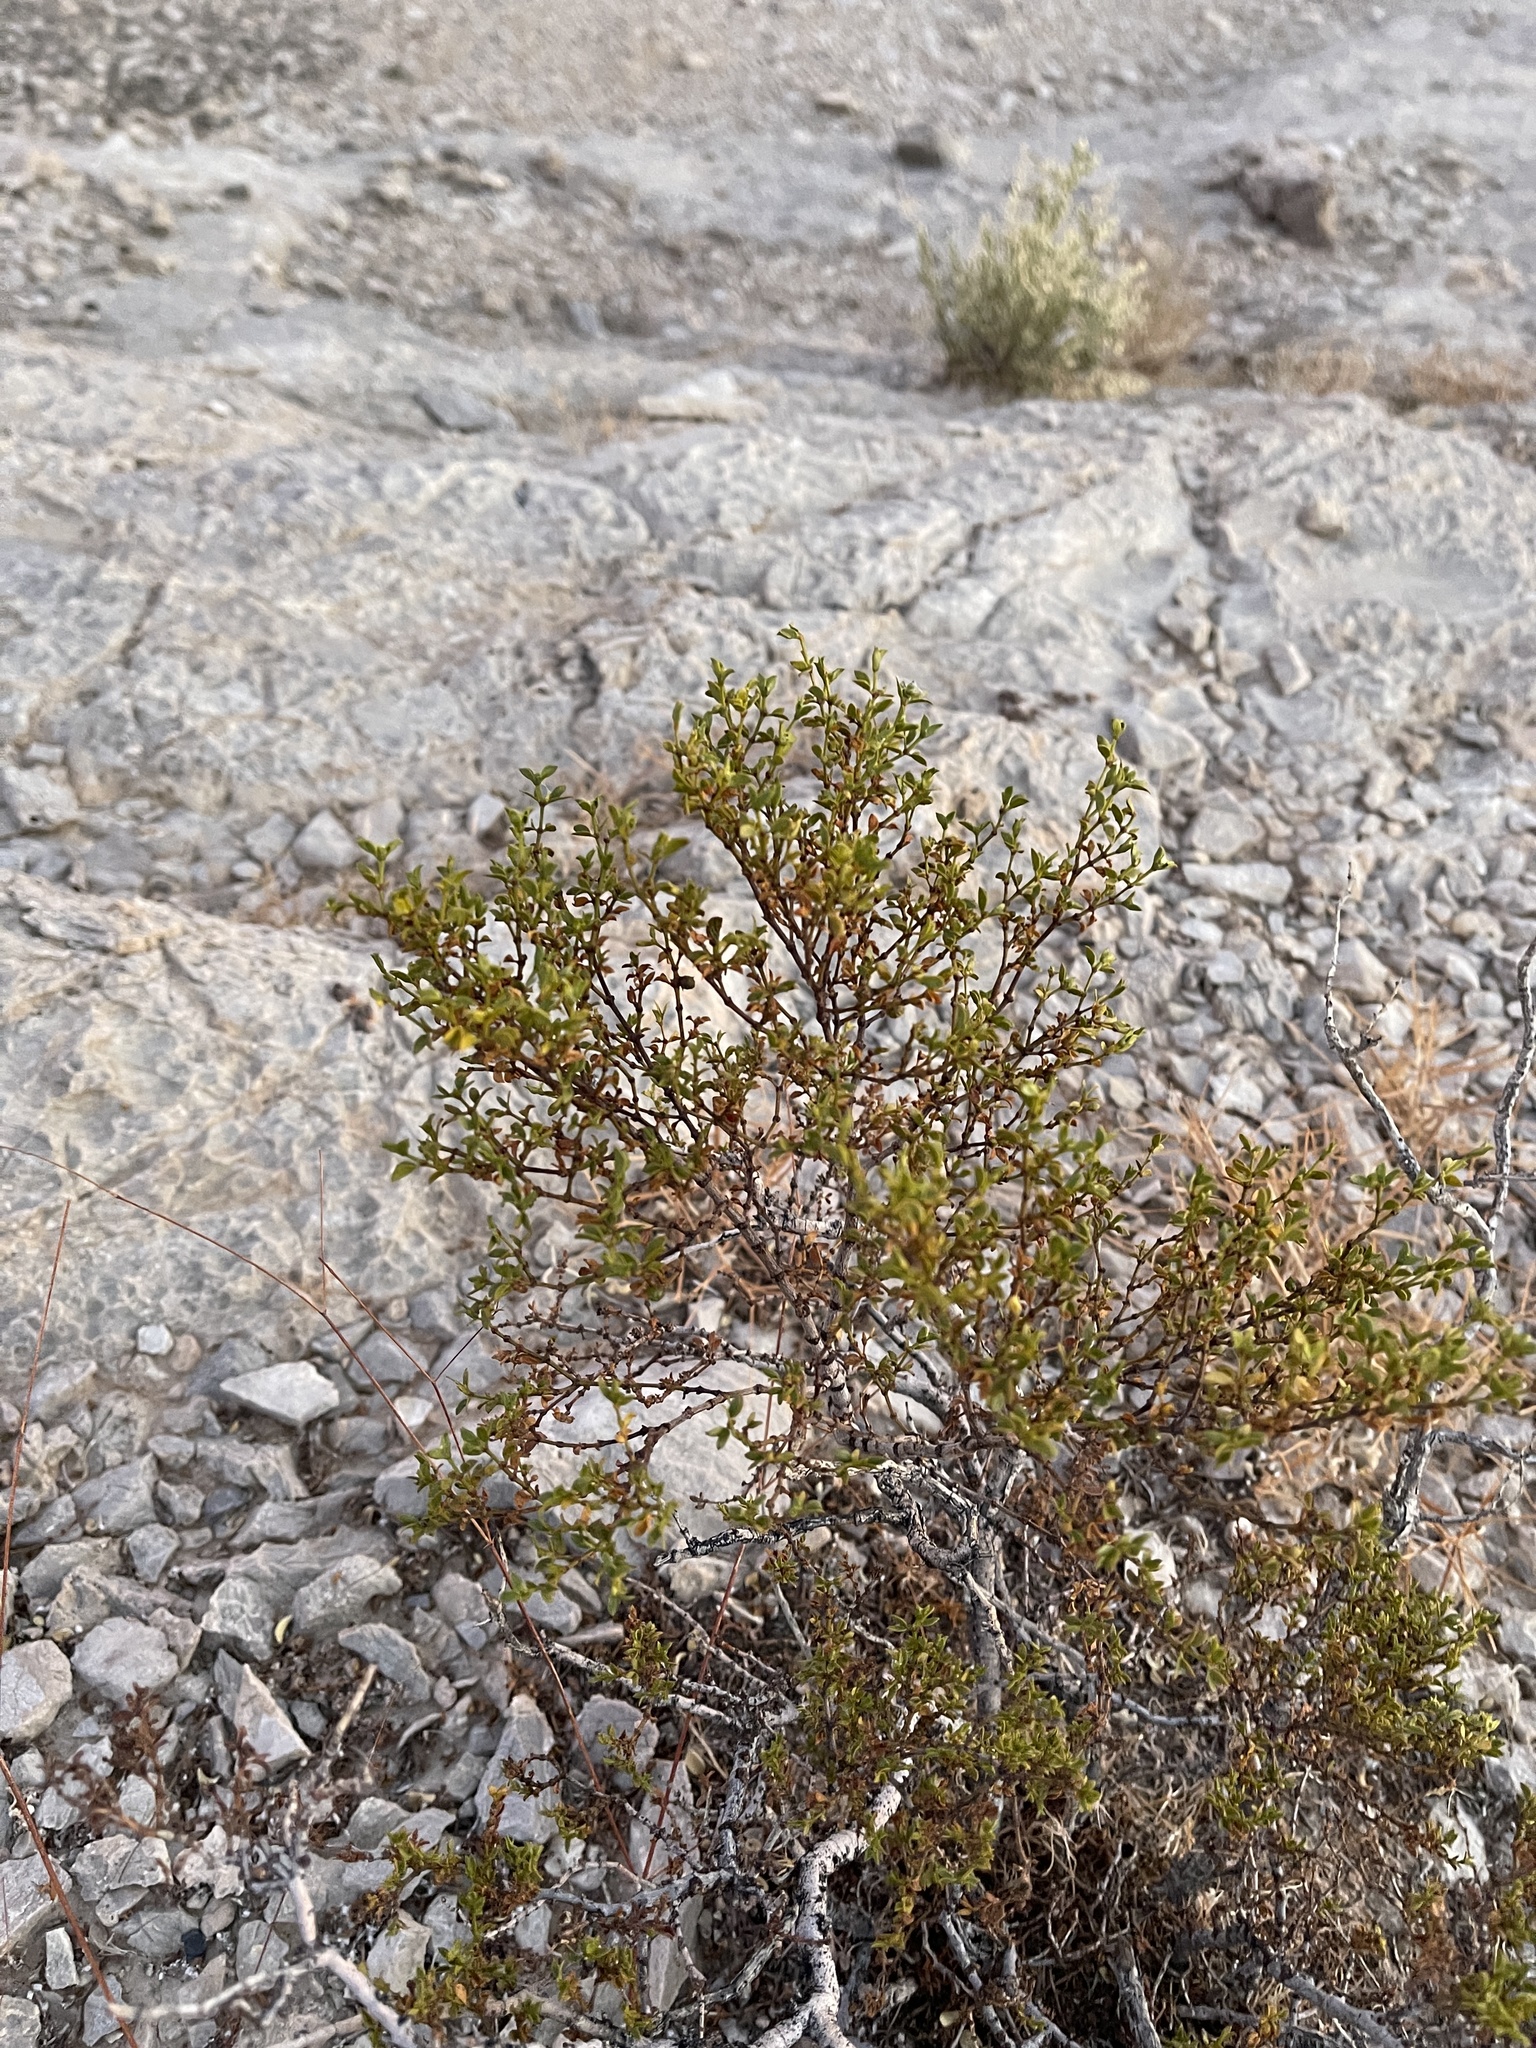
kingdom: Plantae
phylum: Tracheophyta
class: Magnoliopsida
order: Zygophyllales
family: Zygophyllaceae
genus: Larrea
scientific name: Larrea tridentata
